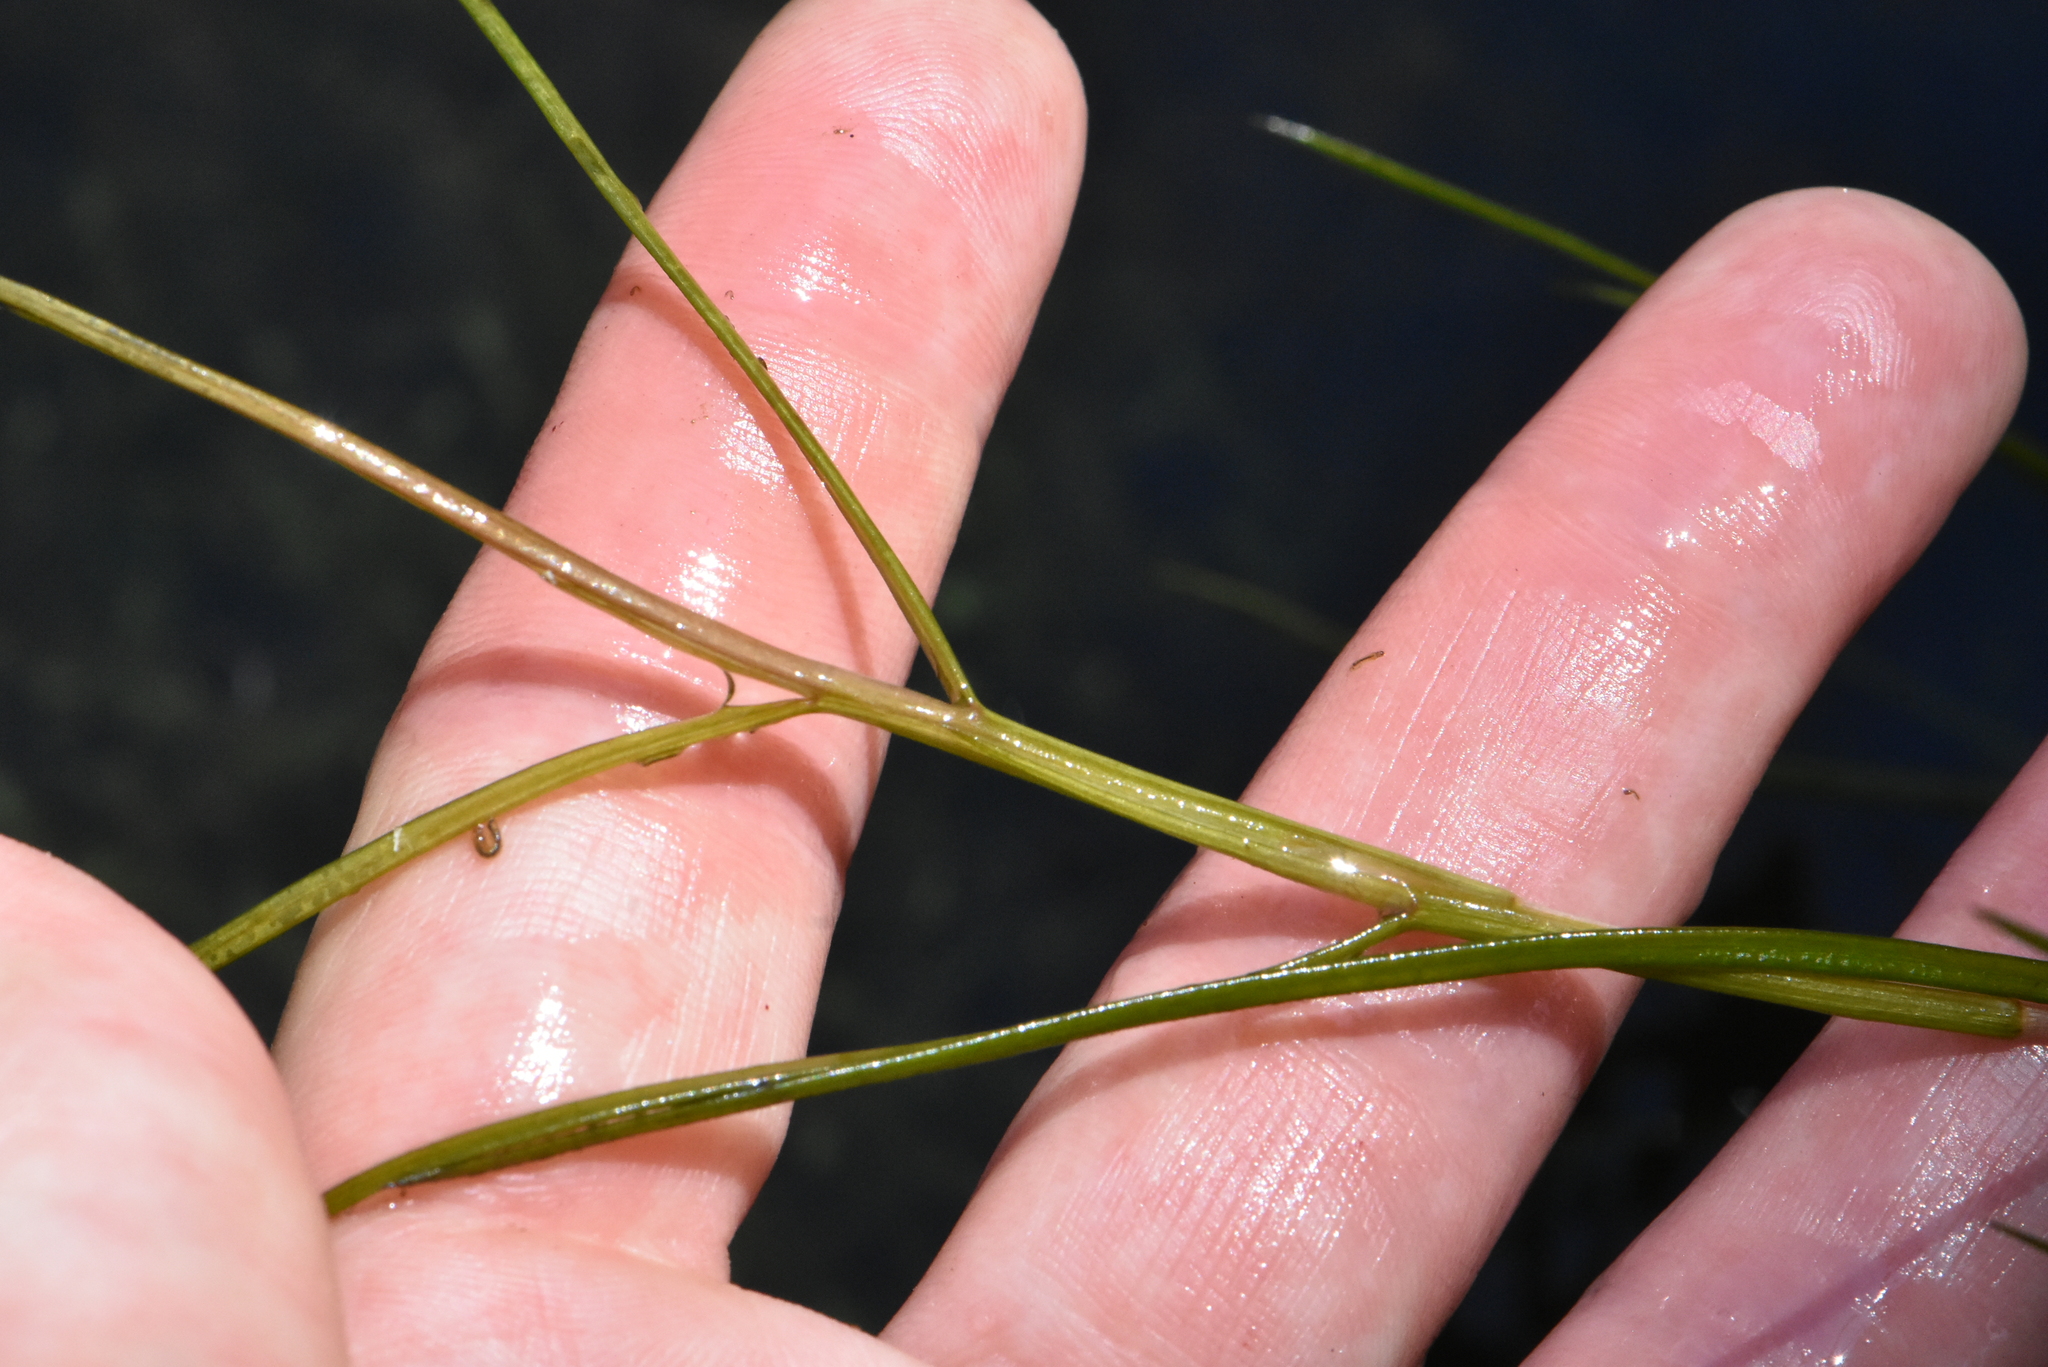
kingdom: Plantae
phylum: Tracheophyta
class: Liliopsida
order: Alismatales
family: Potamogetonaceae
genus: Stuckenia
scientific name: Stuckenia pectinata
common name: Sago pondweed
